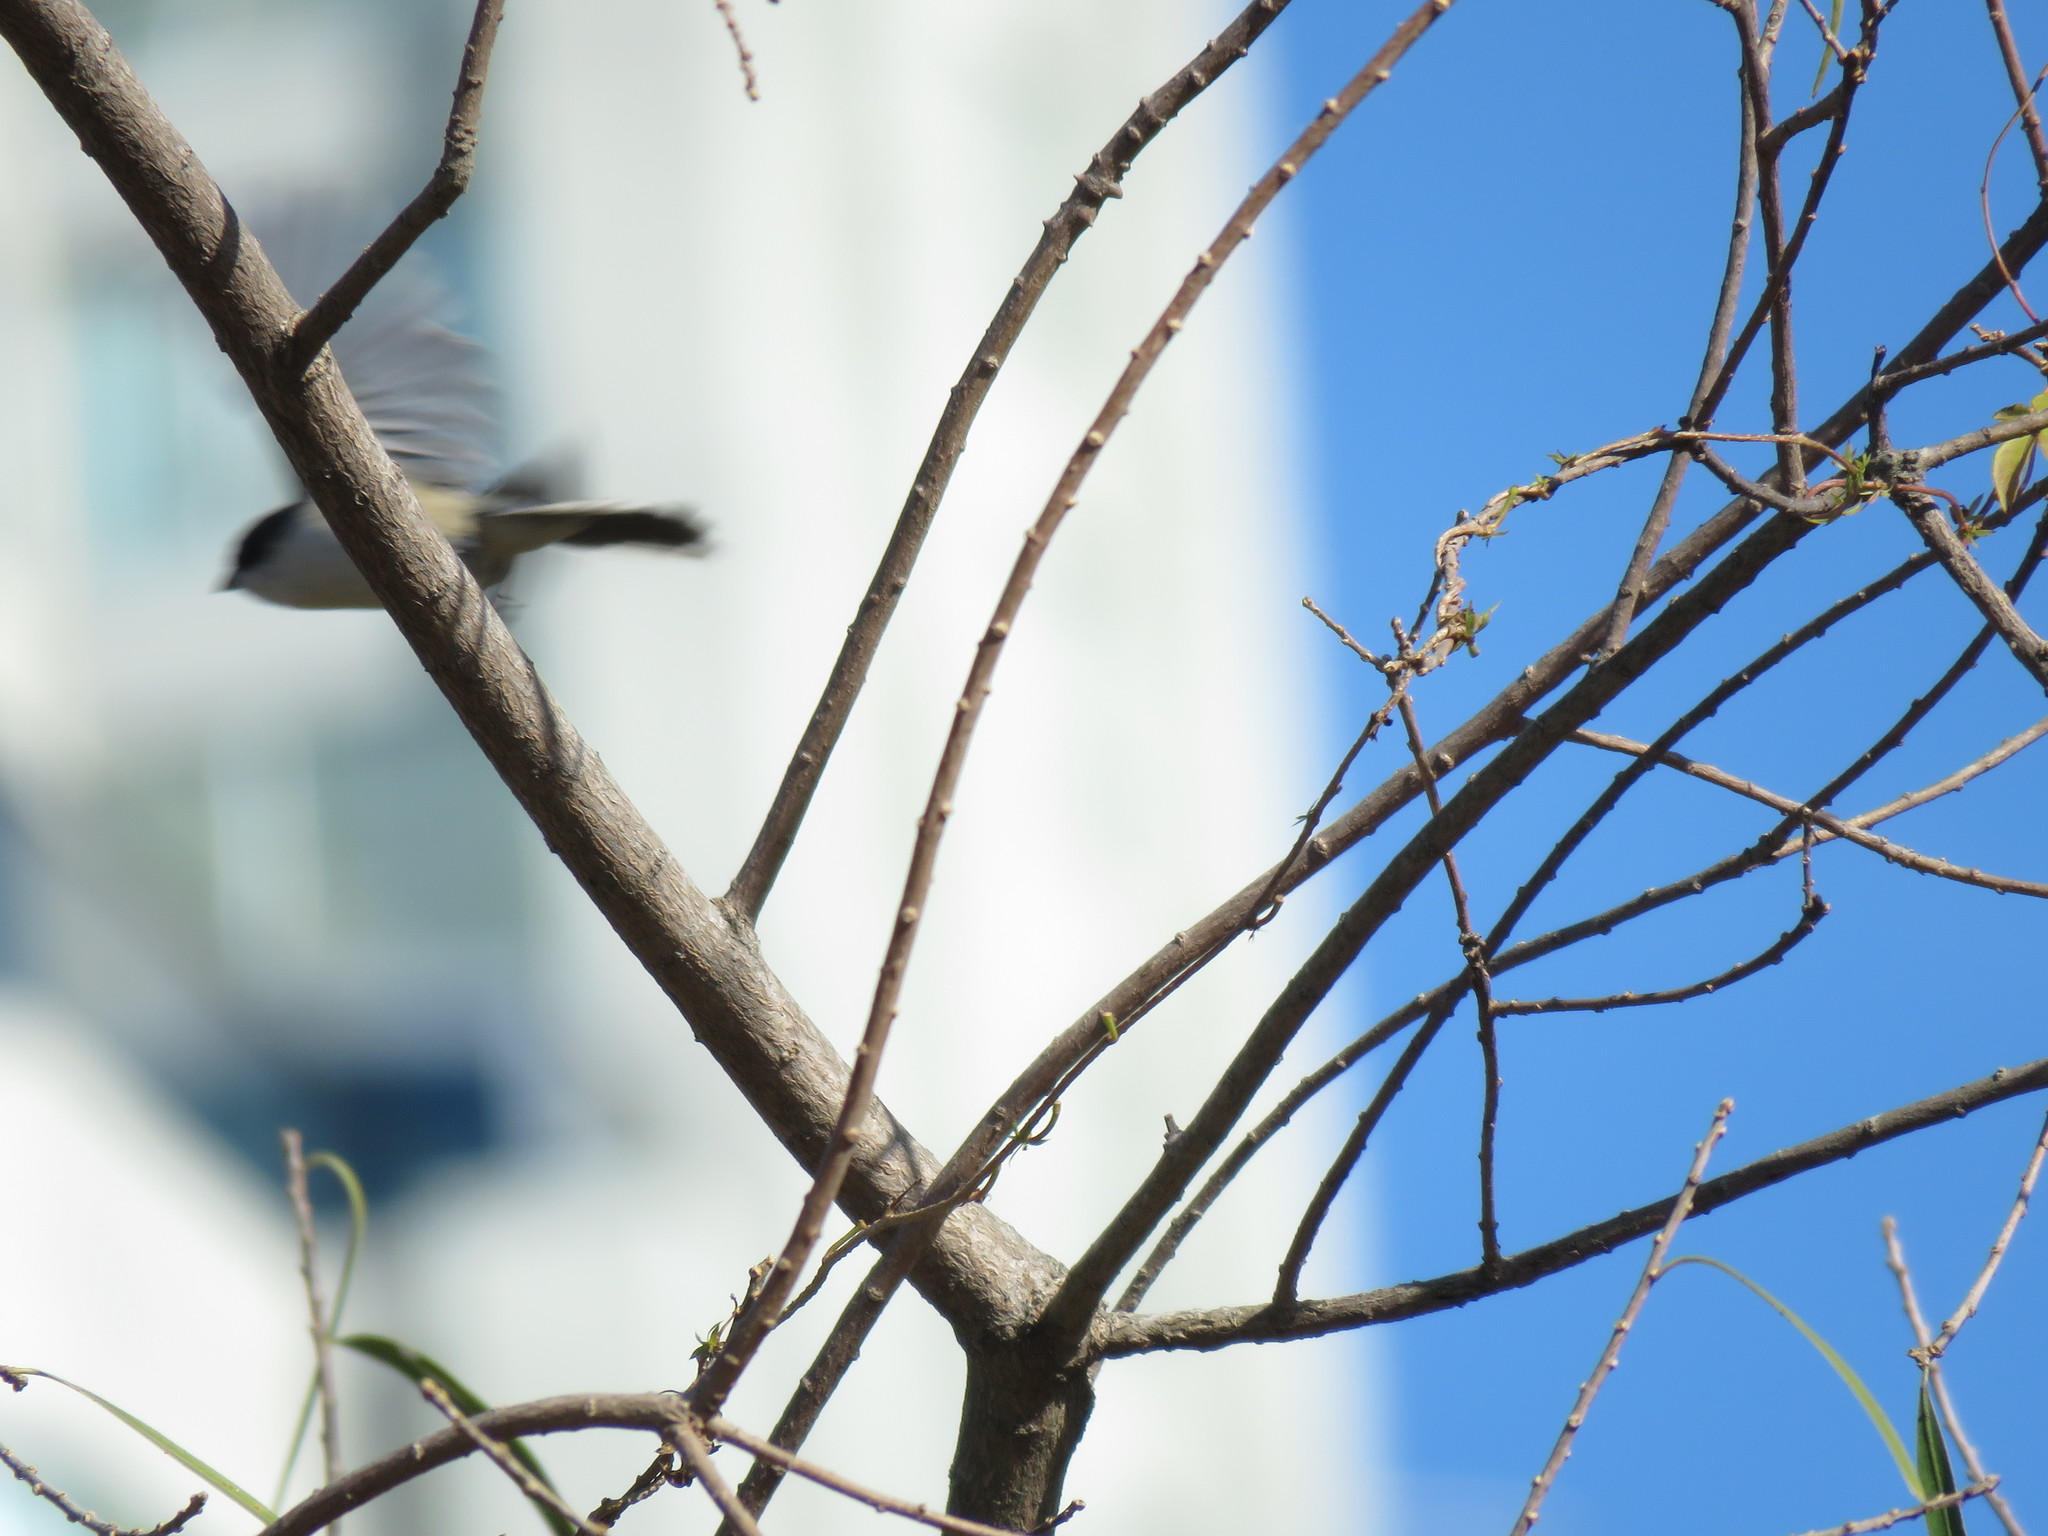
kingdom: Animalia
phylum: Chordata
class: Aves
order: Passeriformes
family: Thraupidae
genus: Microspingus
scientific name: Microspingus melanoleucus
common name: Black-capped warbling-finch
